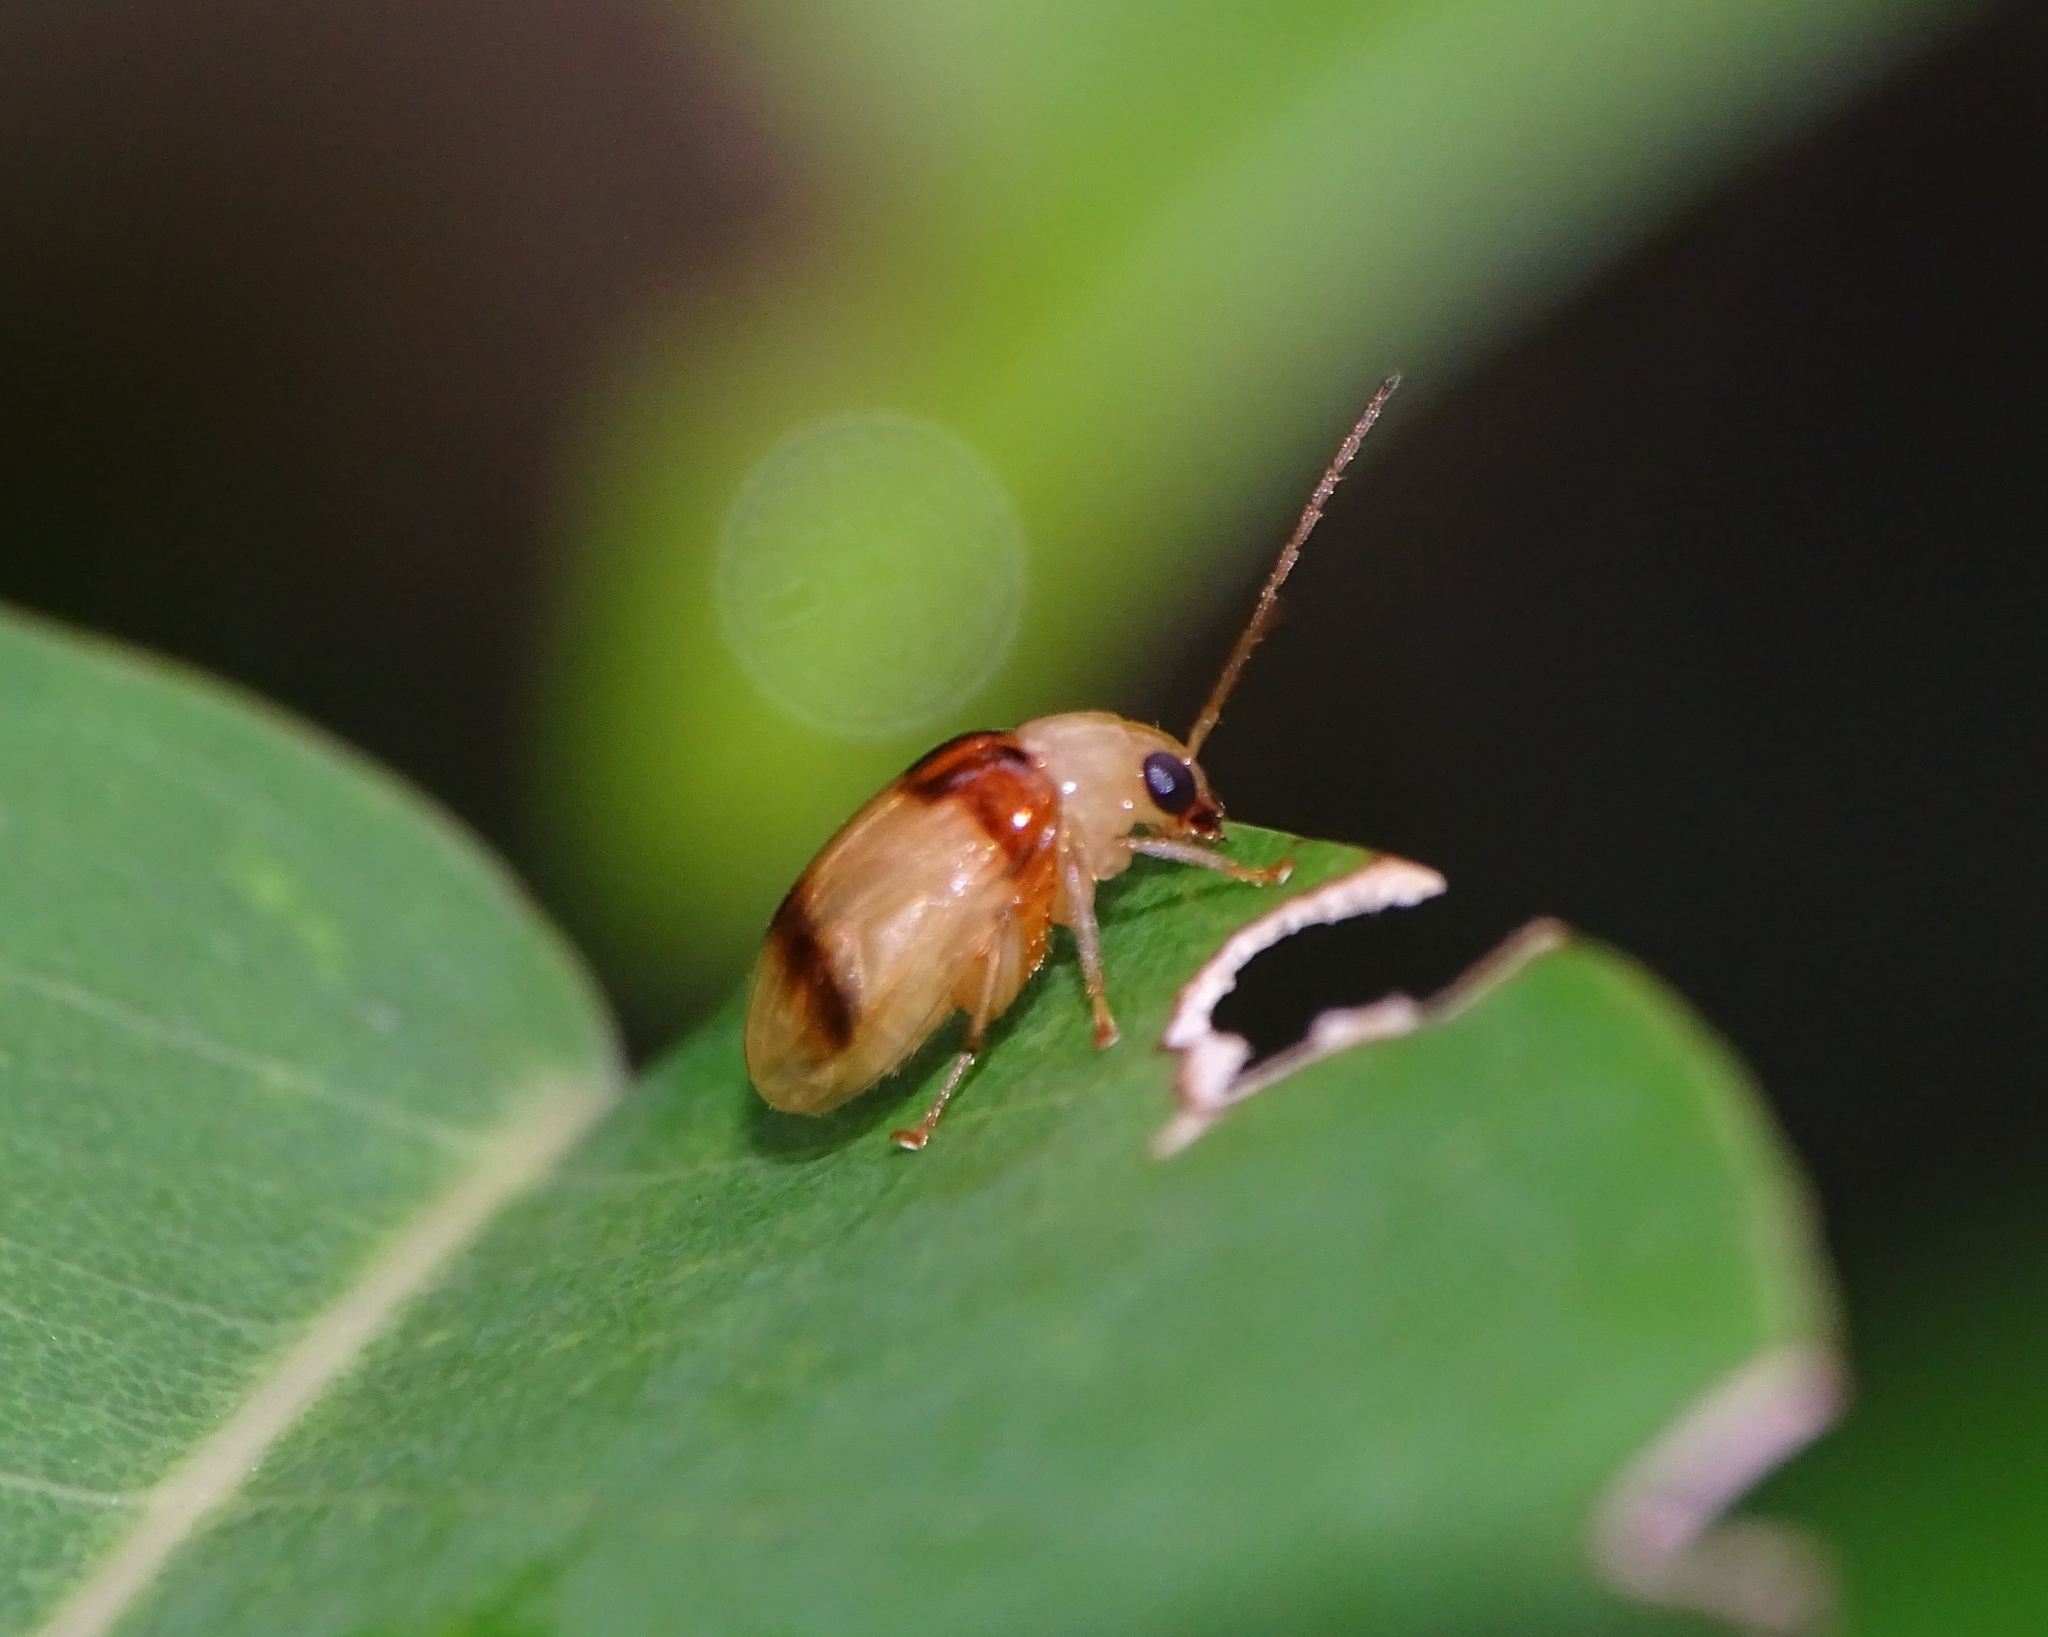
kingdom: Animalia
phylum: Arthropoda
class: Insecta
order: Coleoptera
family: Chrysomelidae
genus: Monolepta
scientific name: Monolepta
